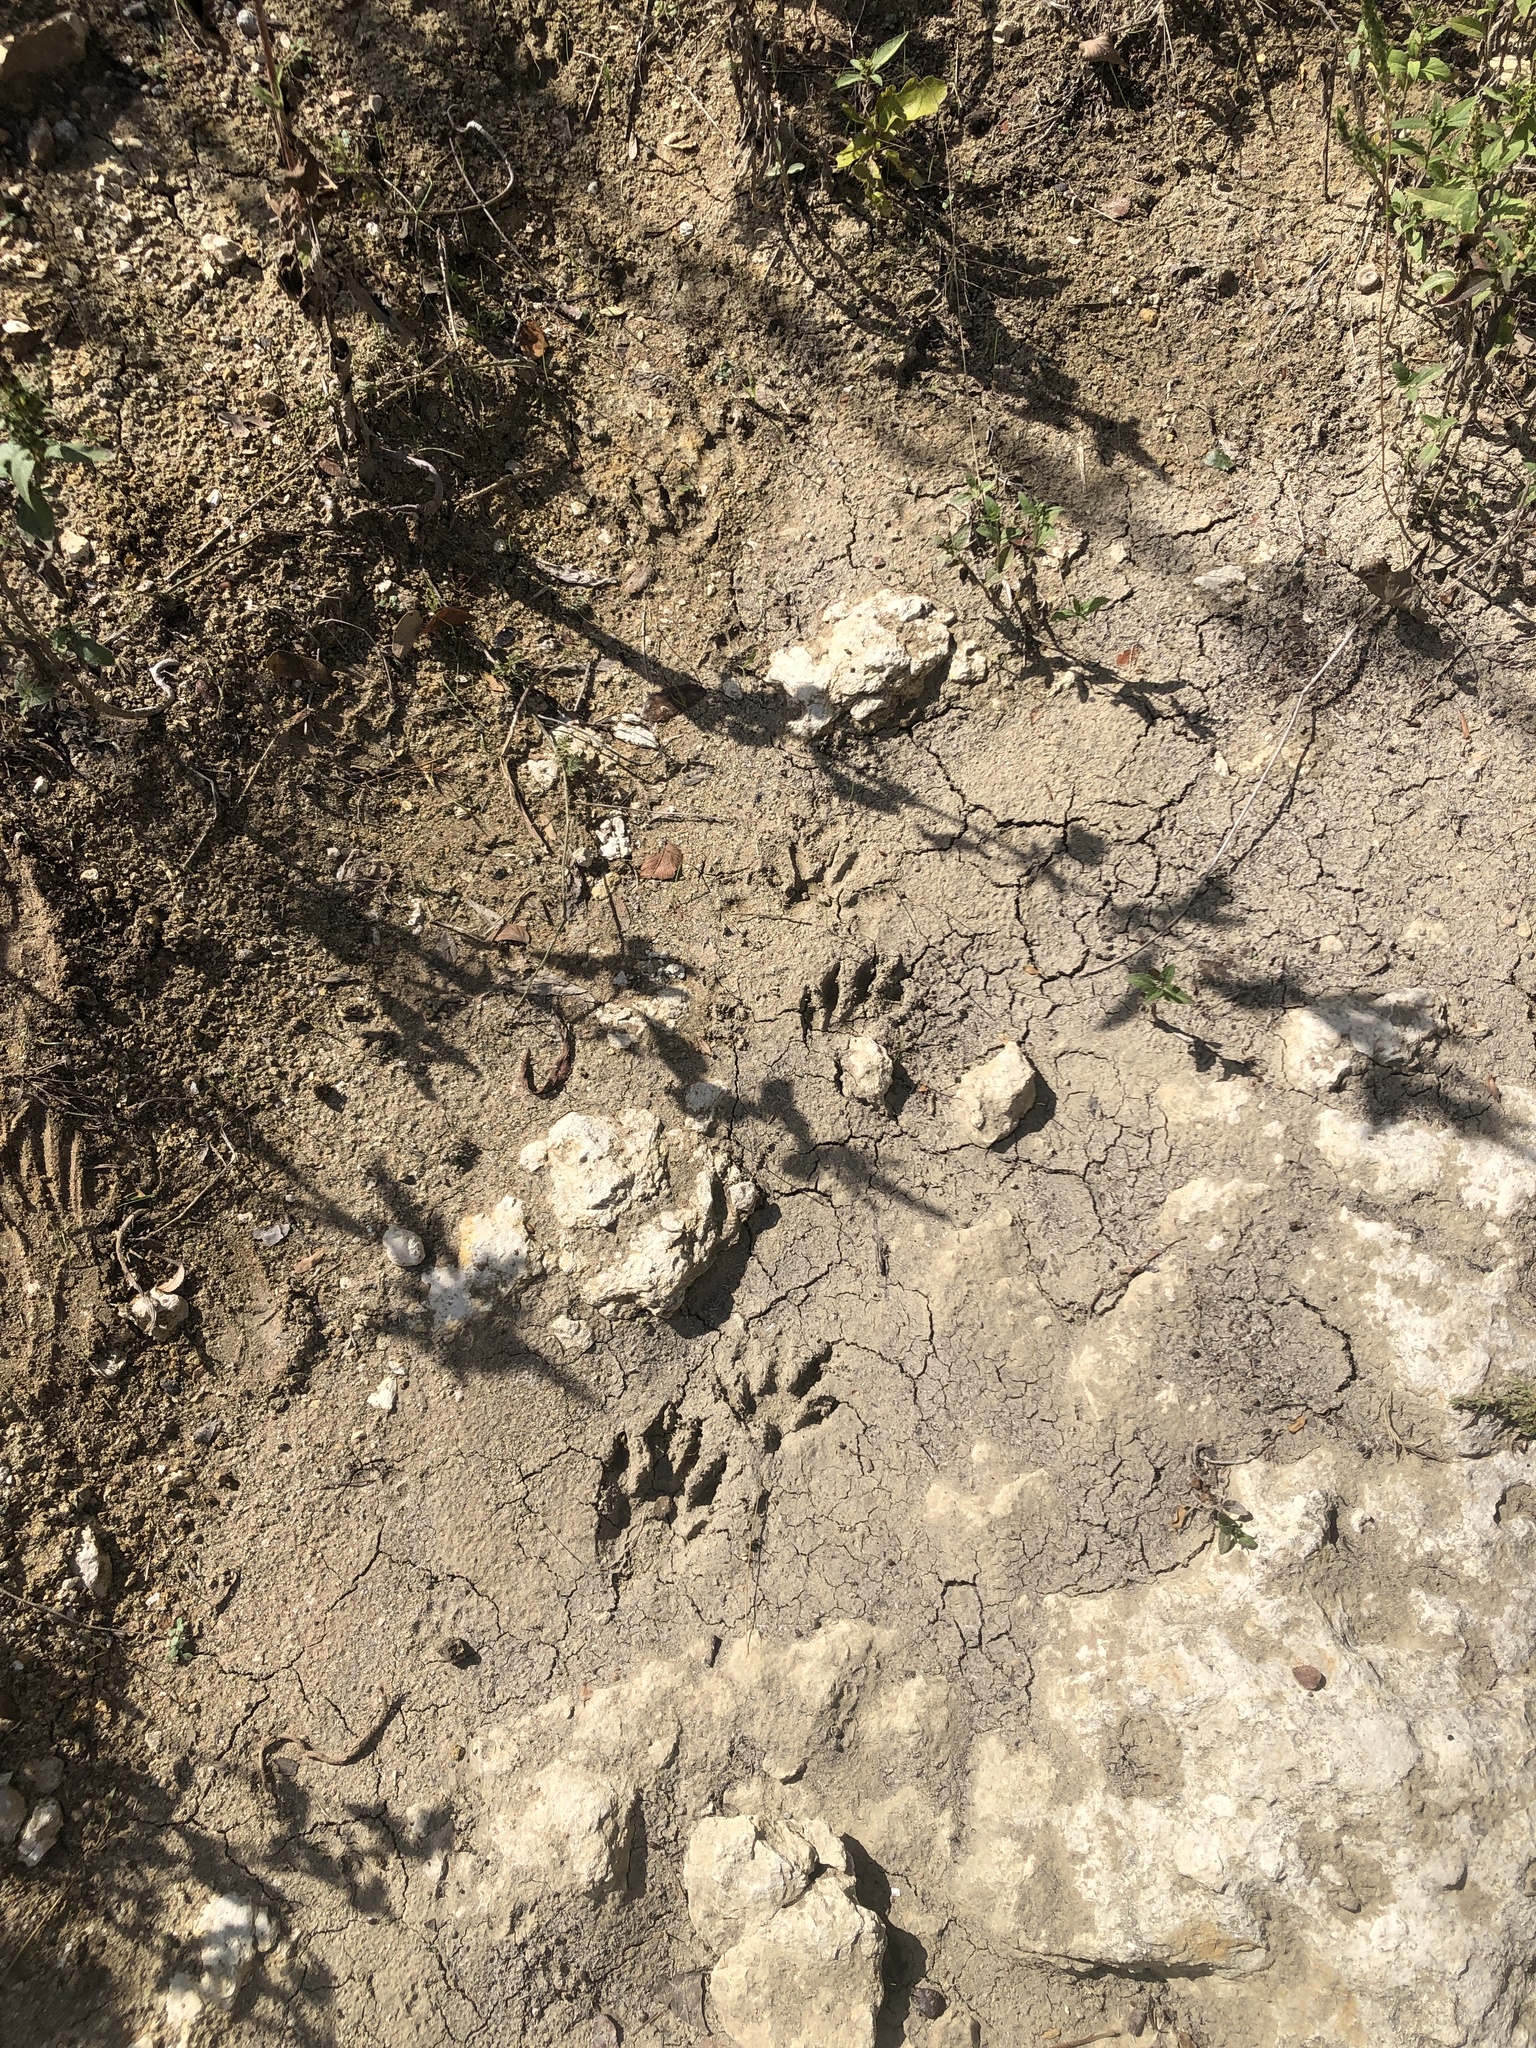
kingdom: Animalia
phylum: Chordata
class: Mammalia
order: Carnivora
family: Procyonidae
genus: Procyon
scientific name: Procyon lotor
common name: Raccoon
